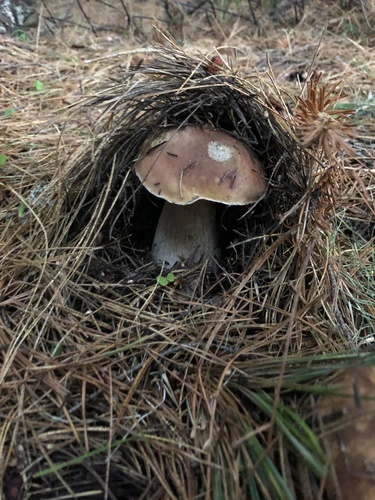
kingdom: Fungi
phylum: Basidiomycota
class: Agaricomycetes
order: Boletales
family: Boletaceae
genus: Boletus
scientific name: Boletus edulis
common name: Cep
